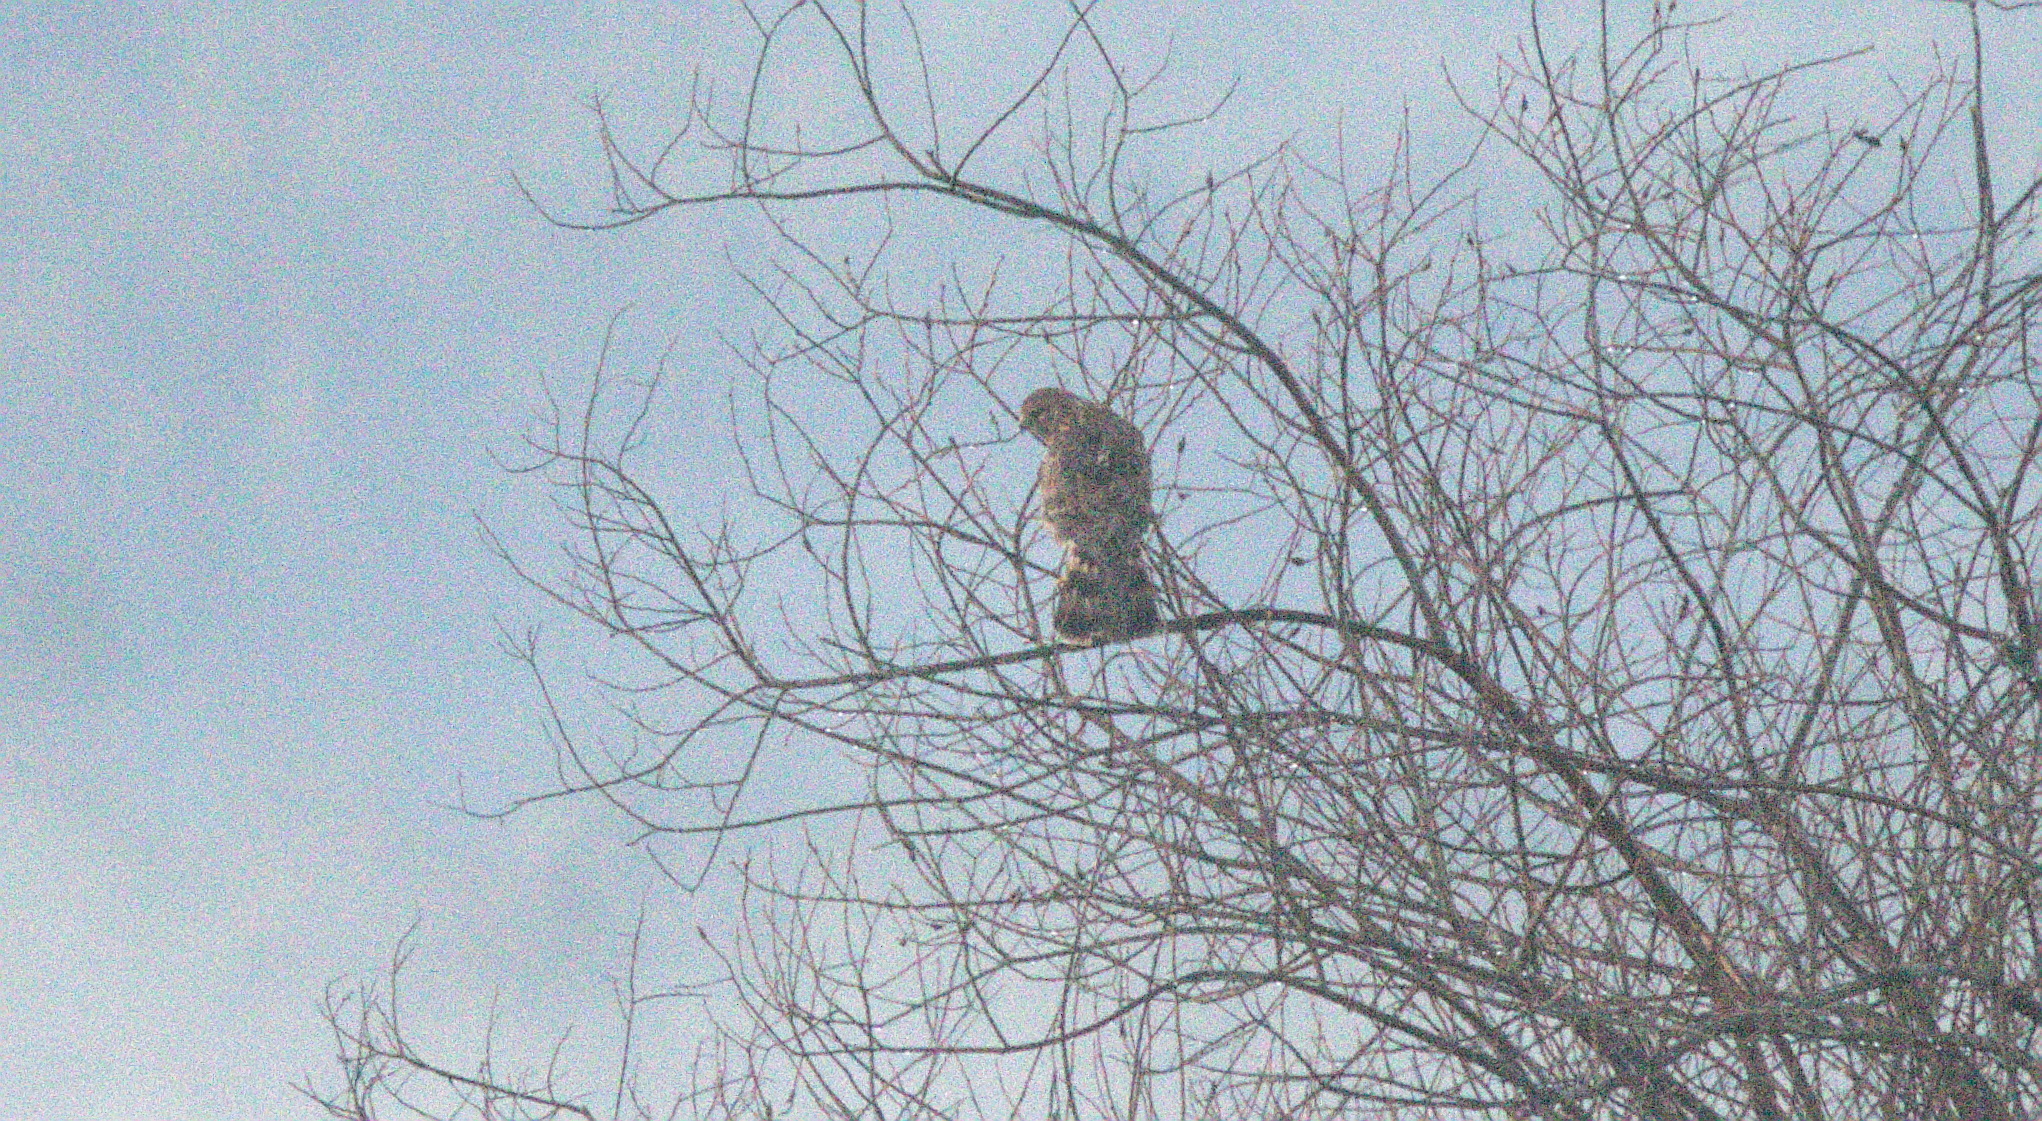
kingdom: Animalia
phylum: Chordata
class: Aves
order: Accipitriformes
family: Accipitridae
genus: Buteo
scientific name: Buteo lineatus
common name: Red-shouldered hawk
